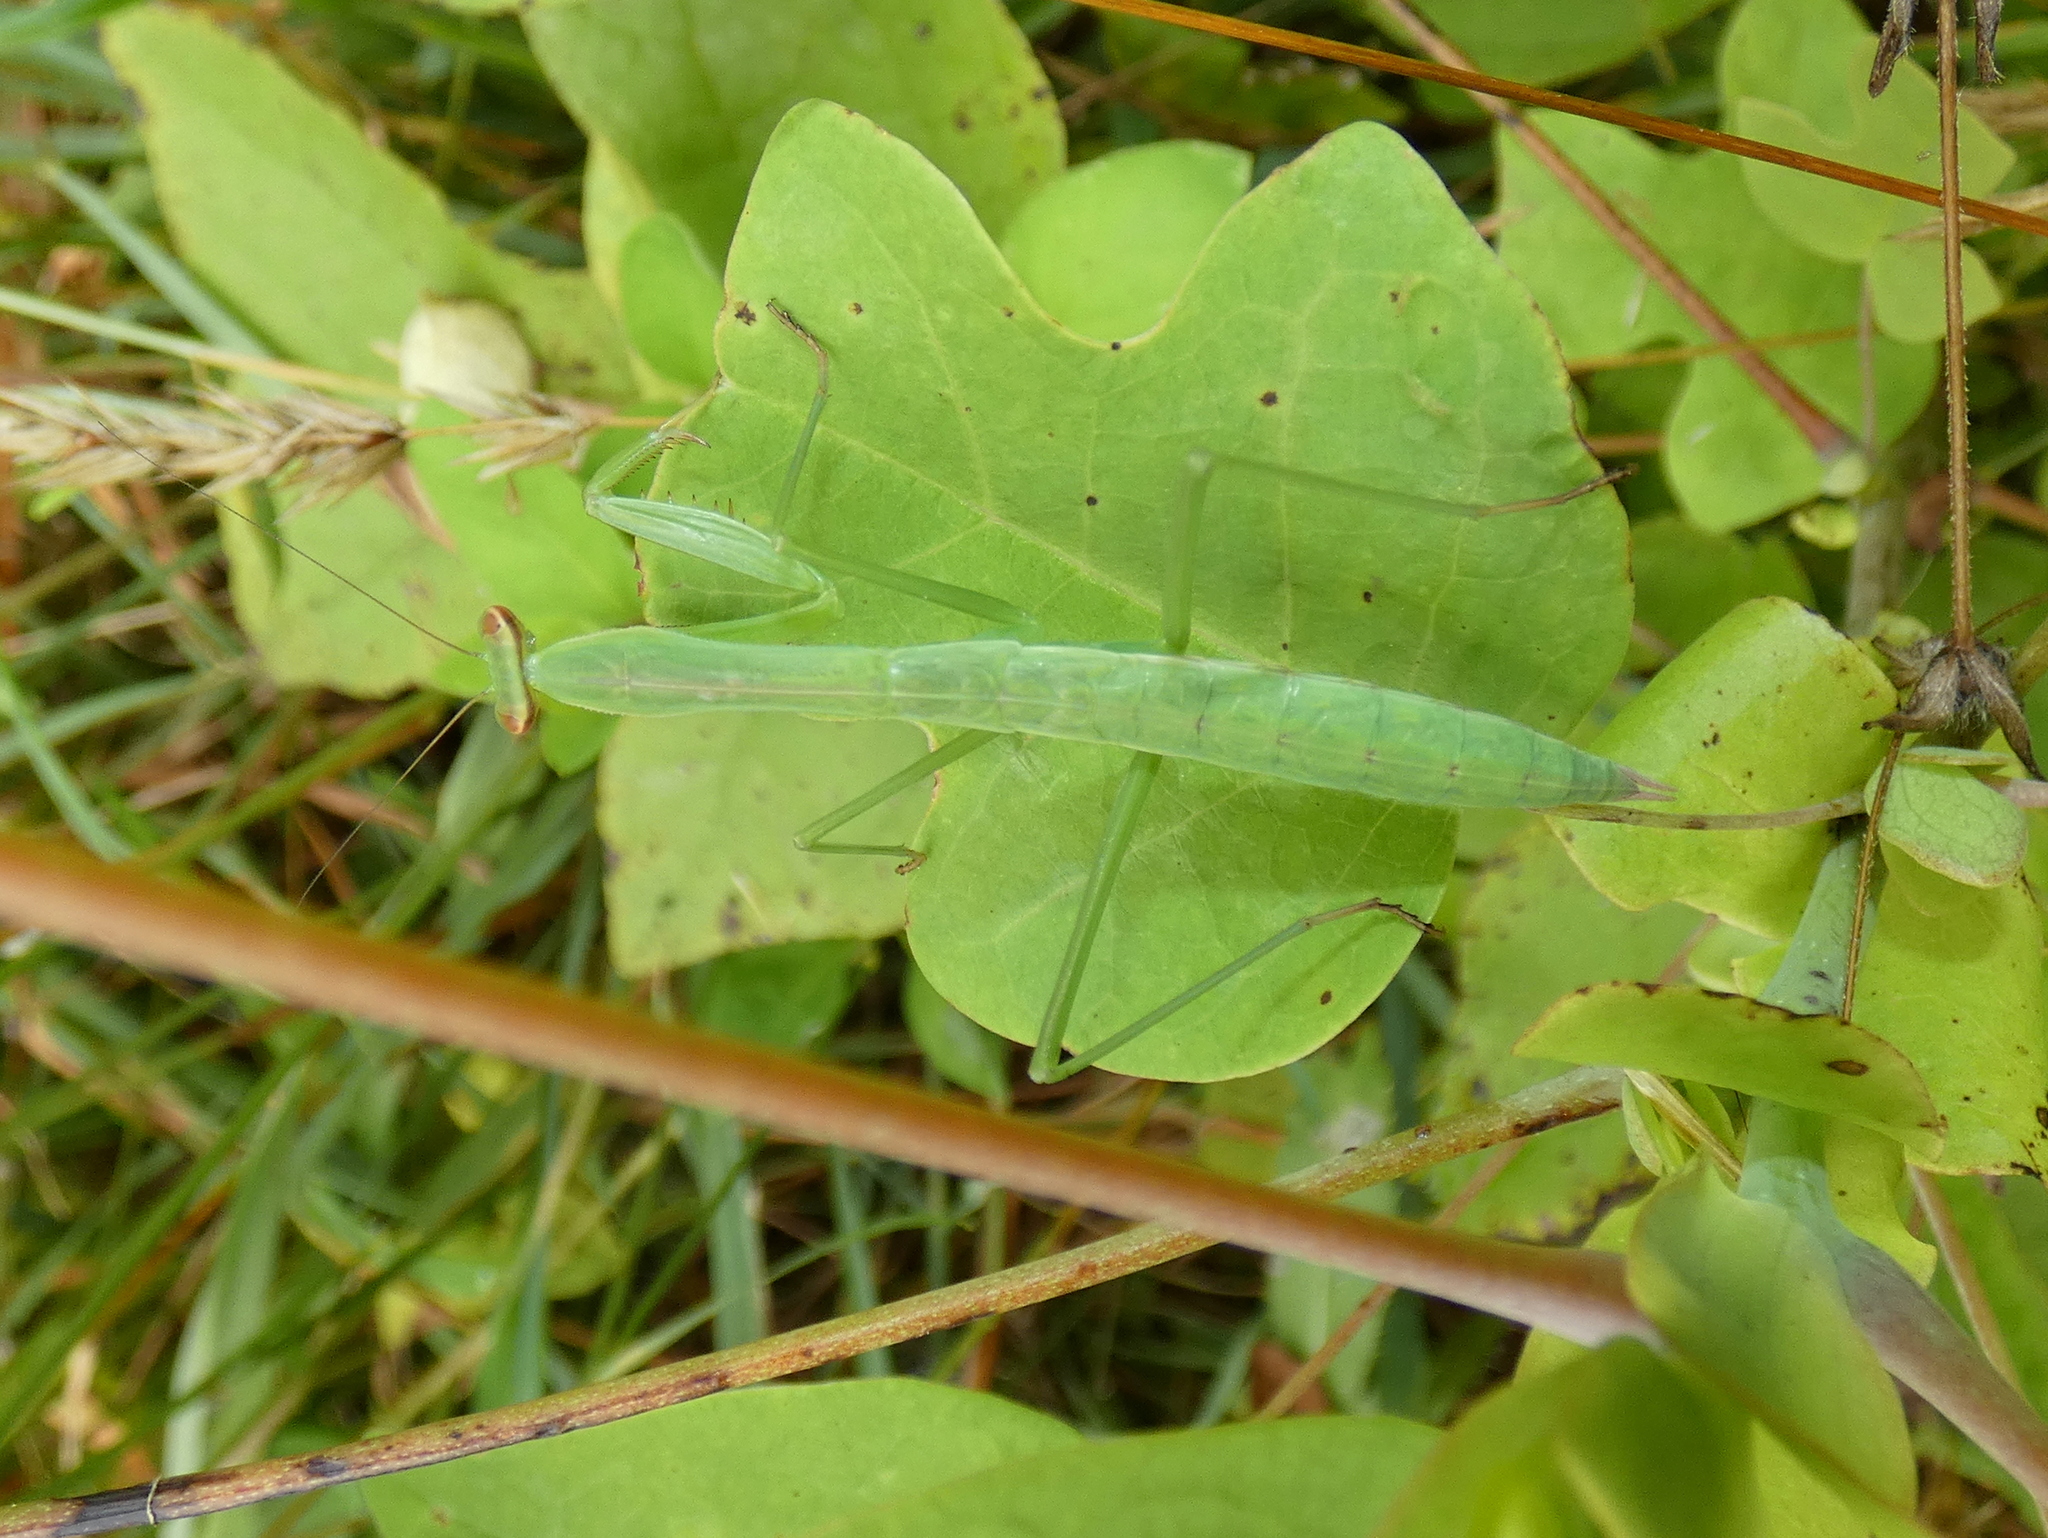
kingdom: Animalia
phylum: Arthropoda
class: Insecta
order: Mantodea
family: Mantidae
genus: Tenodera
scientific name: Tenodera sinensis
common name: Chinese mantis
